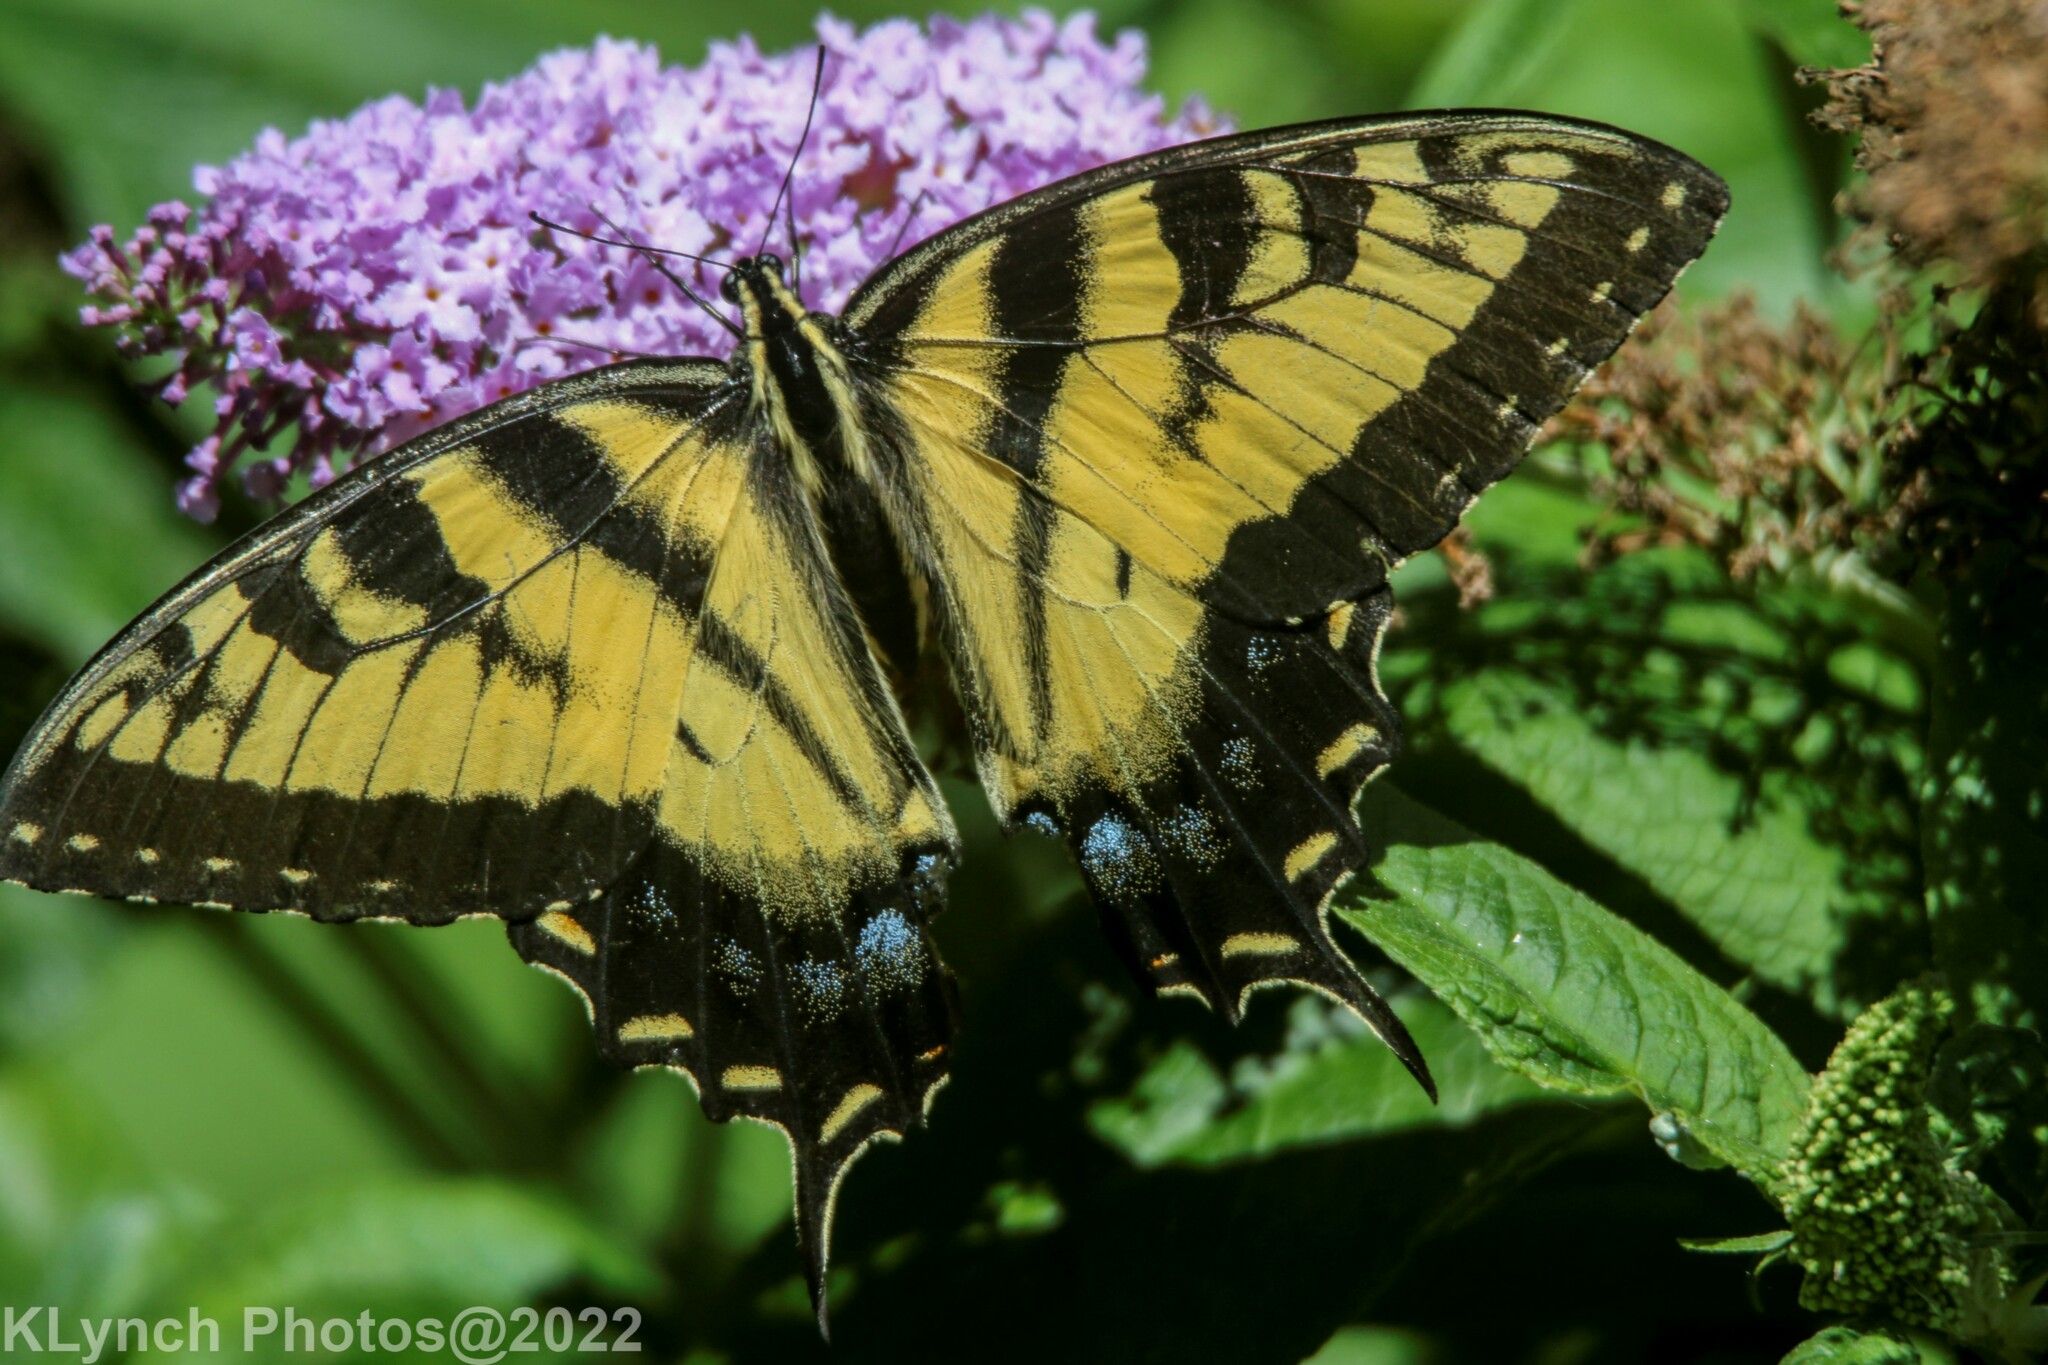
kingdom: Animalia
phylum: Arthropoda
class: Insecta
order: Lepidoptera
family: Papilionidae
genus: Papilio
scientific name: Papilio glaucus
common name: Tiger swallowtail
